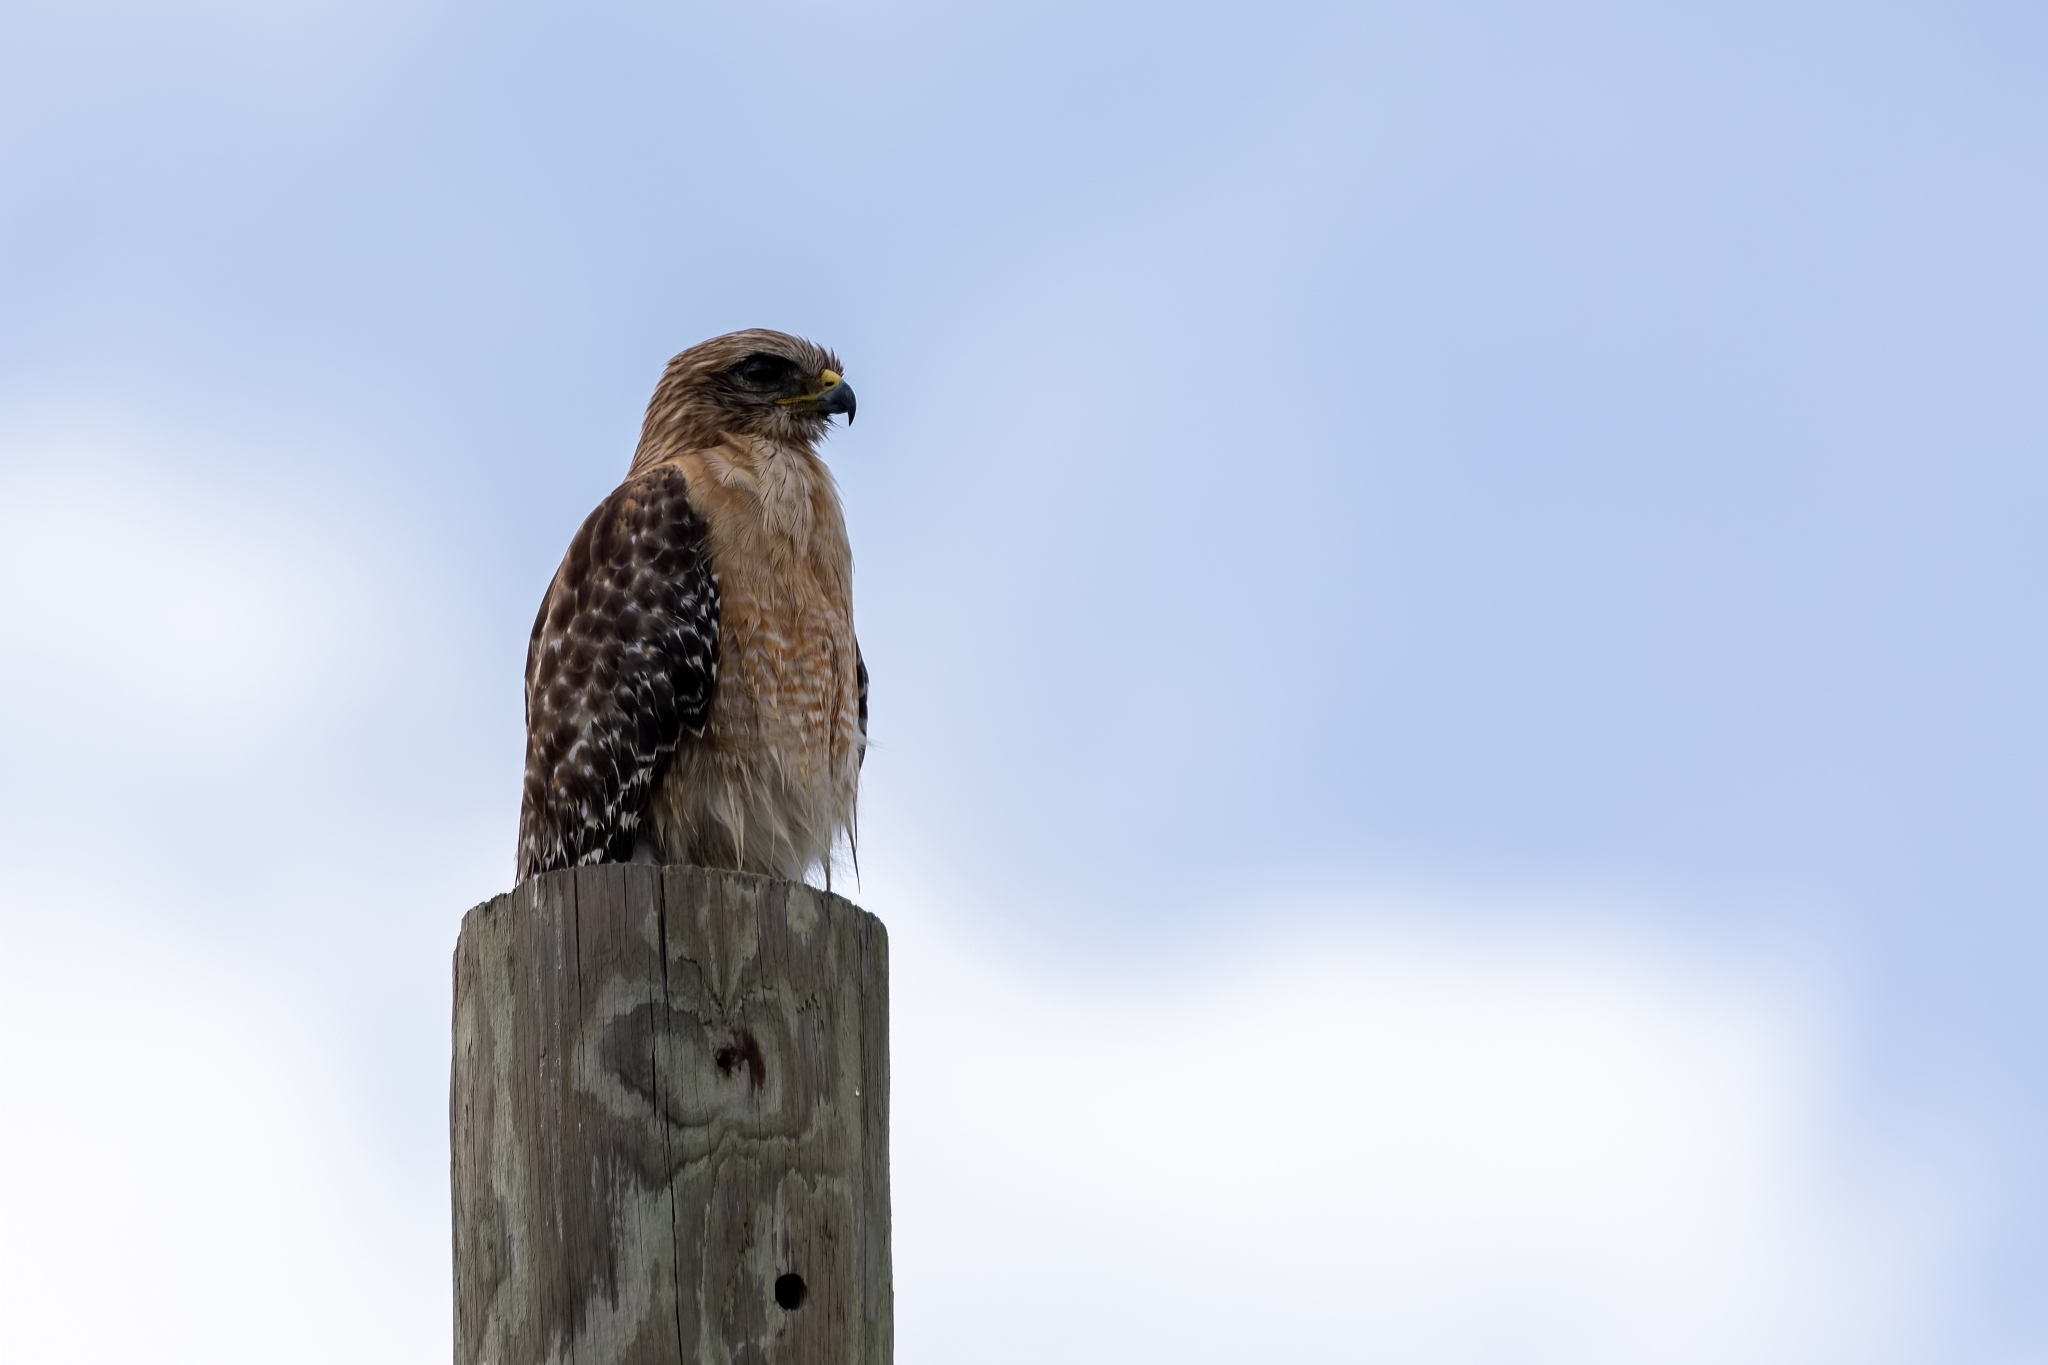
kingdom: Animalia
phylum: Chordata
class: Aves
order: Accipitriformes
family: Accipitridae
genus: Buteo
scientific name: Buteo lineatus
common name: Red-shouldered hawk
